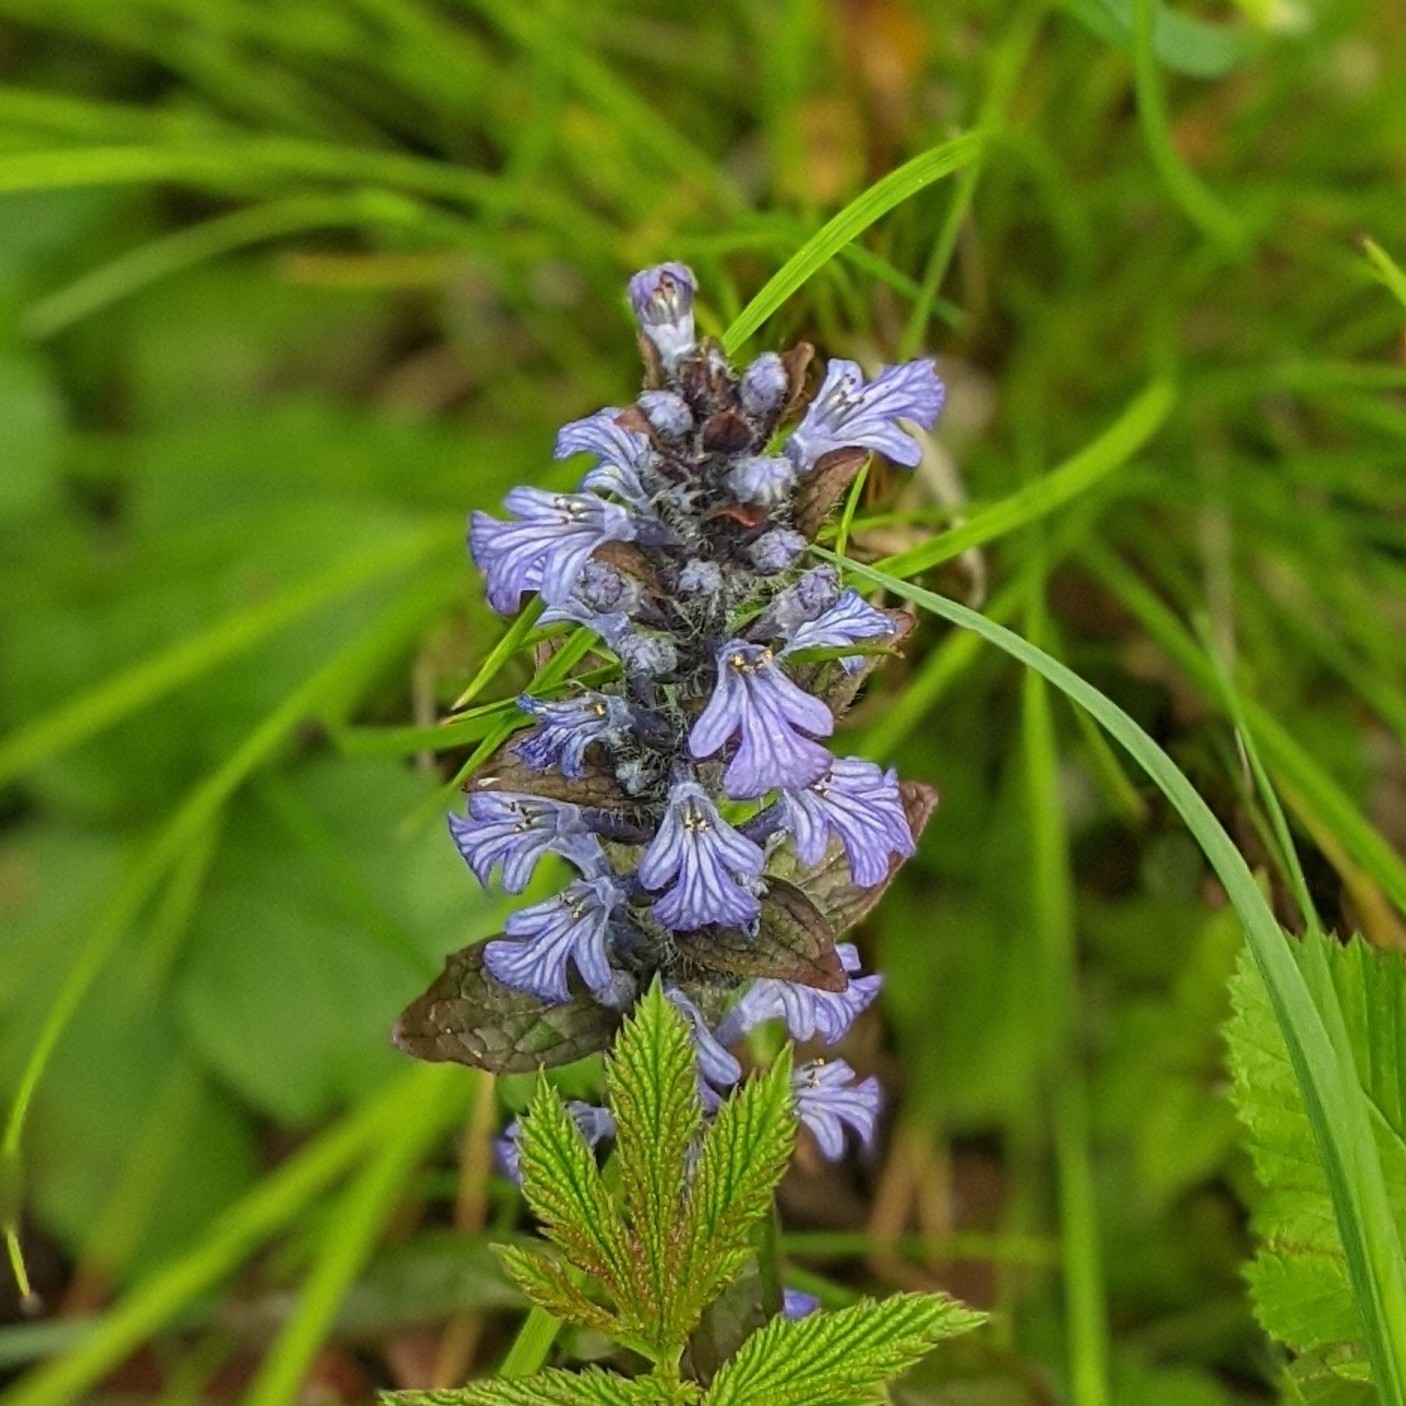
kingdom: Plantae
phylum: Tracheophyta
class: Magnoliopsida
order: Lamiales
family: Lamiaceae
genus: Ajuga
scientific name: Ajuga reptans
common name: Bugle
